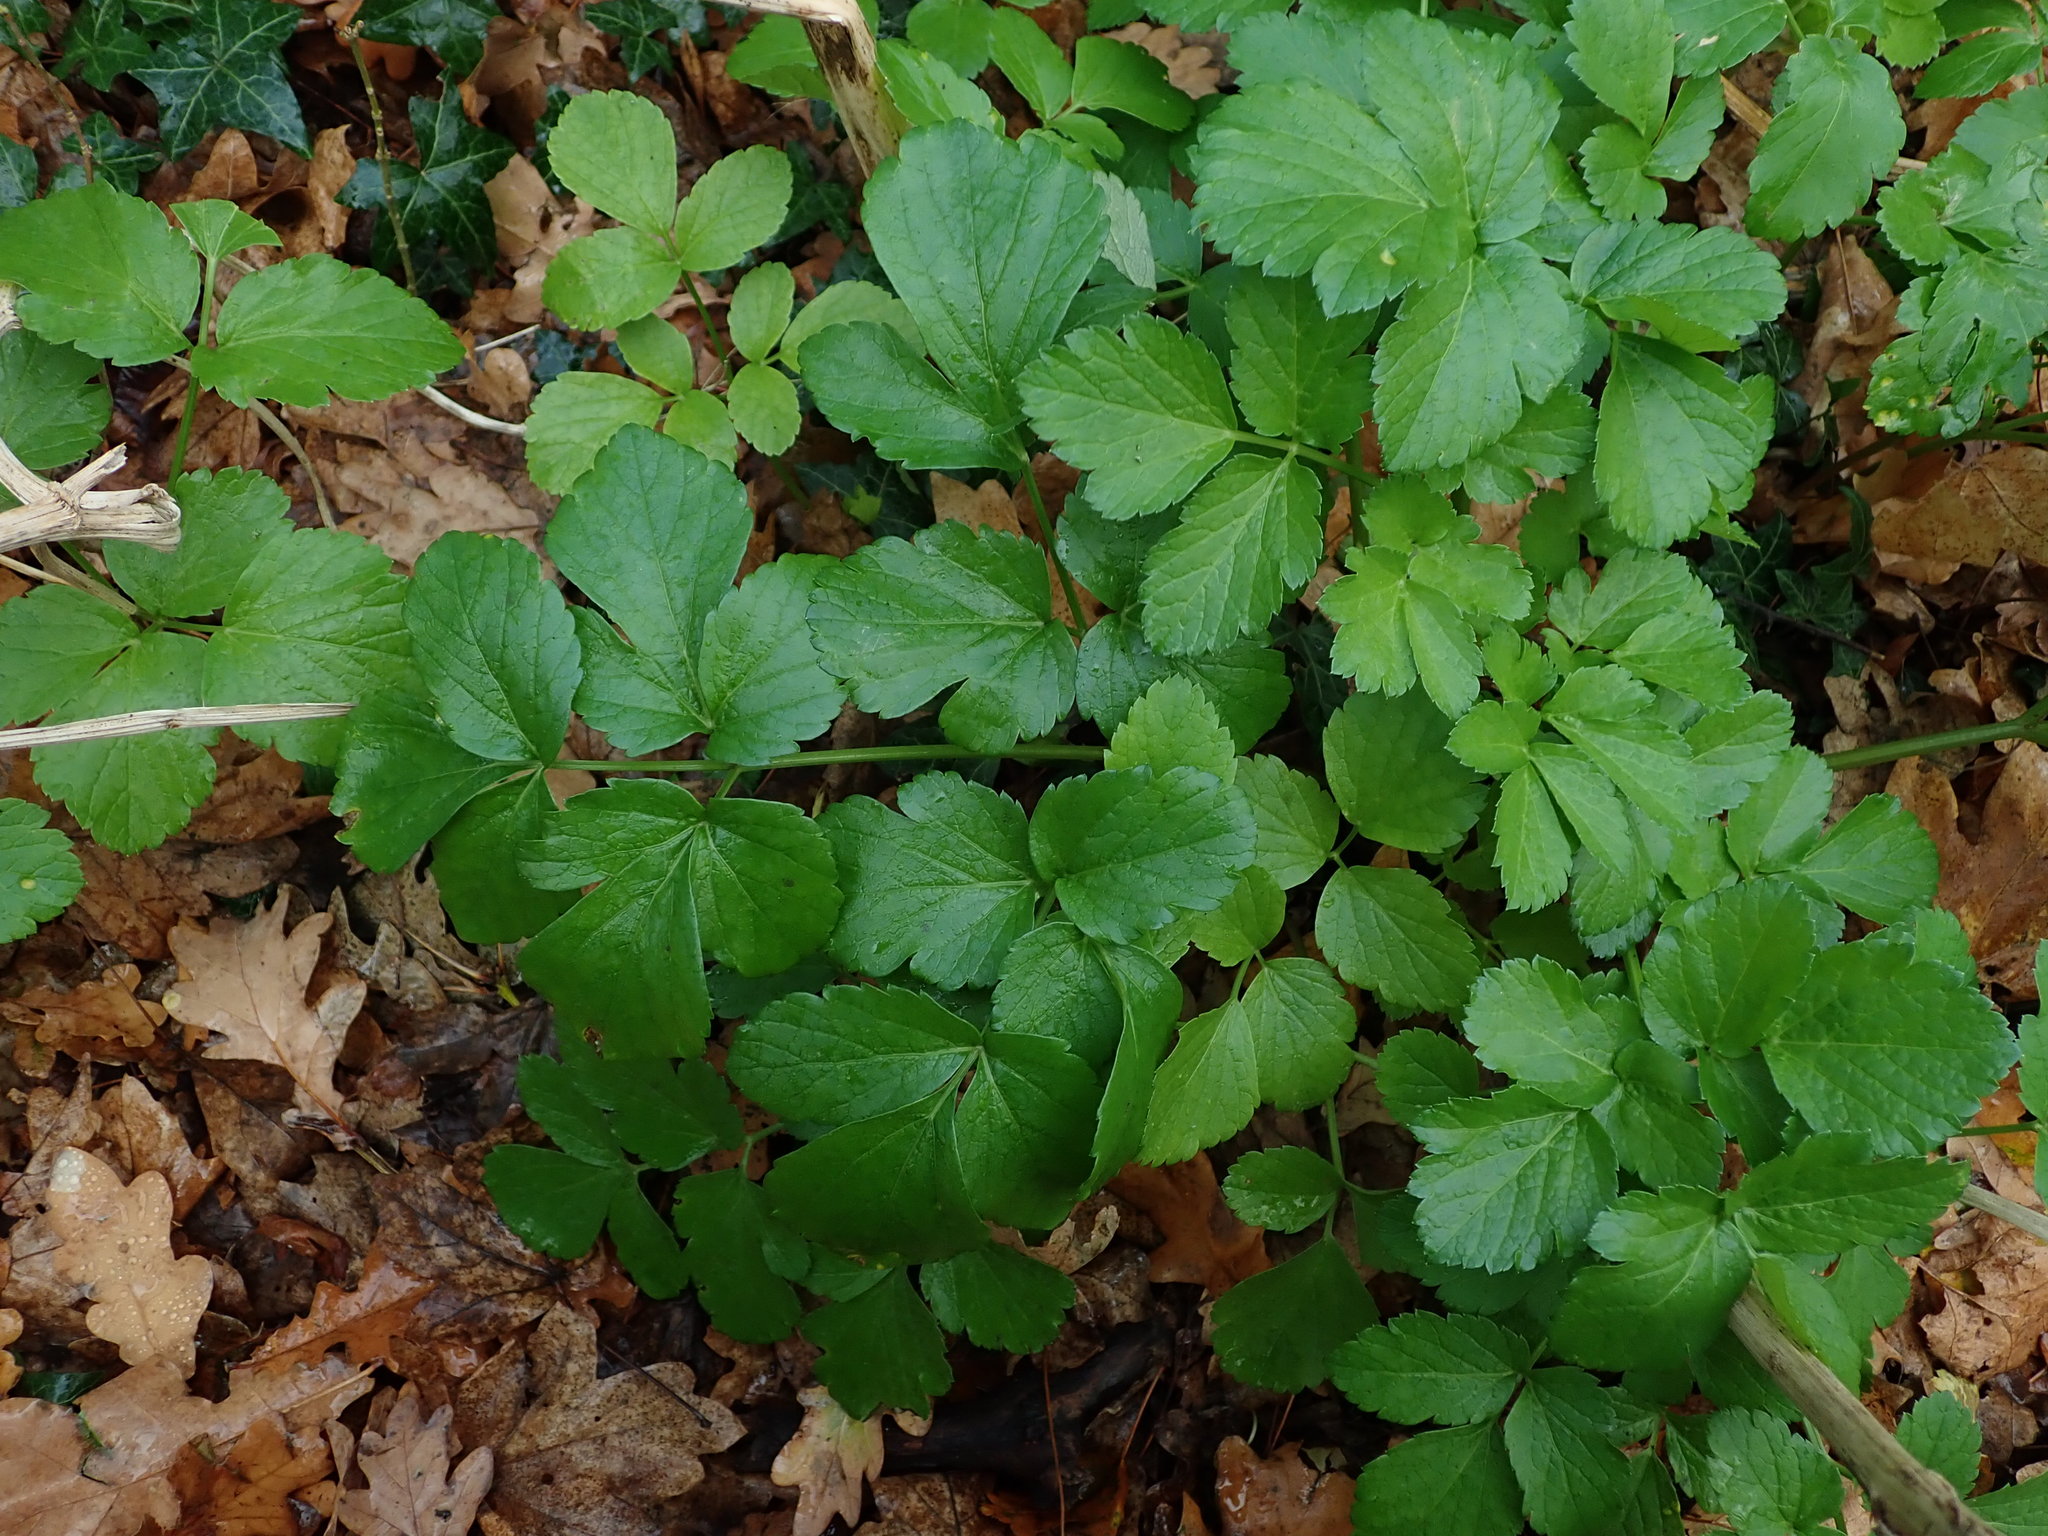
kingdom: Plantae
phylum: Tracheophyta
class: Magnoliopsida
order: Apiales
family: Apiaceae
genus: Smyrnium
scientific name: Smyrnium olusatrum
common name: Alexanders
